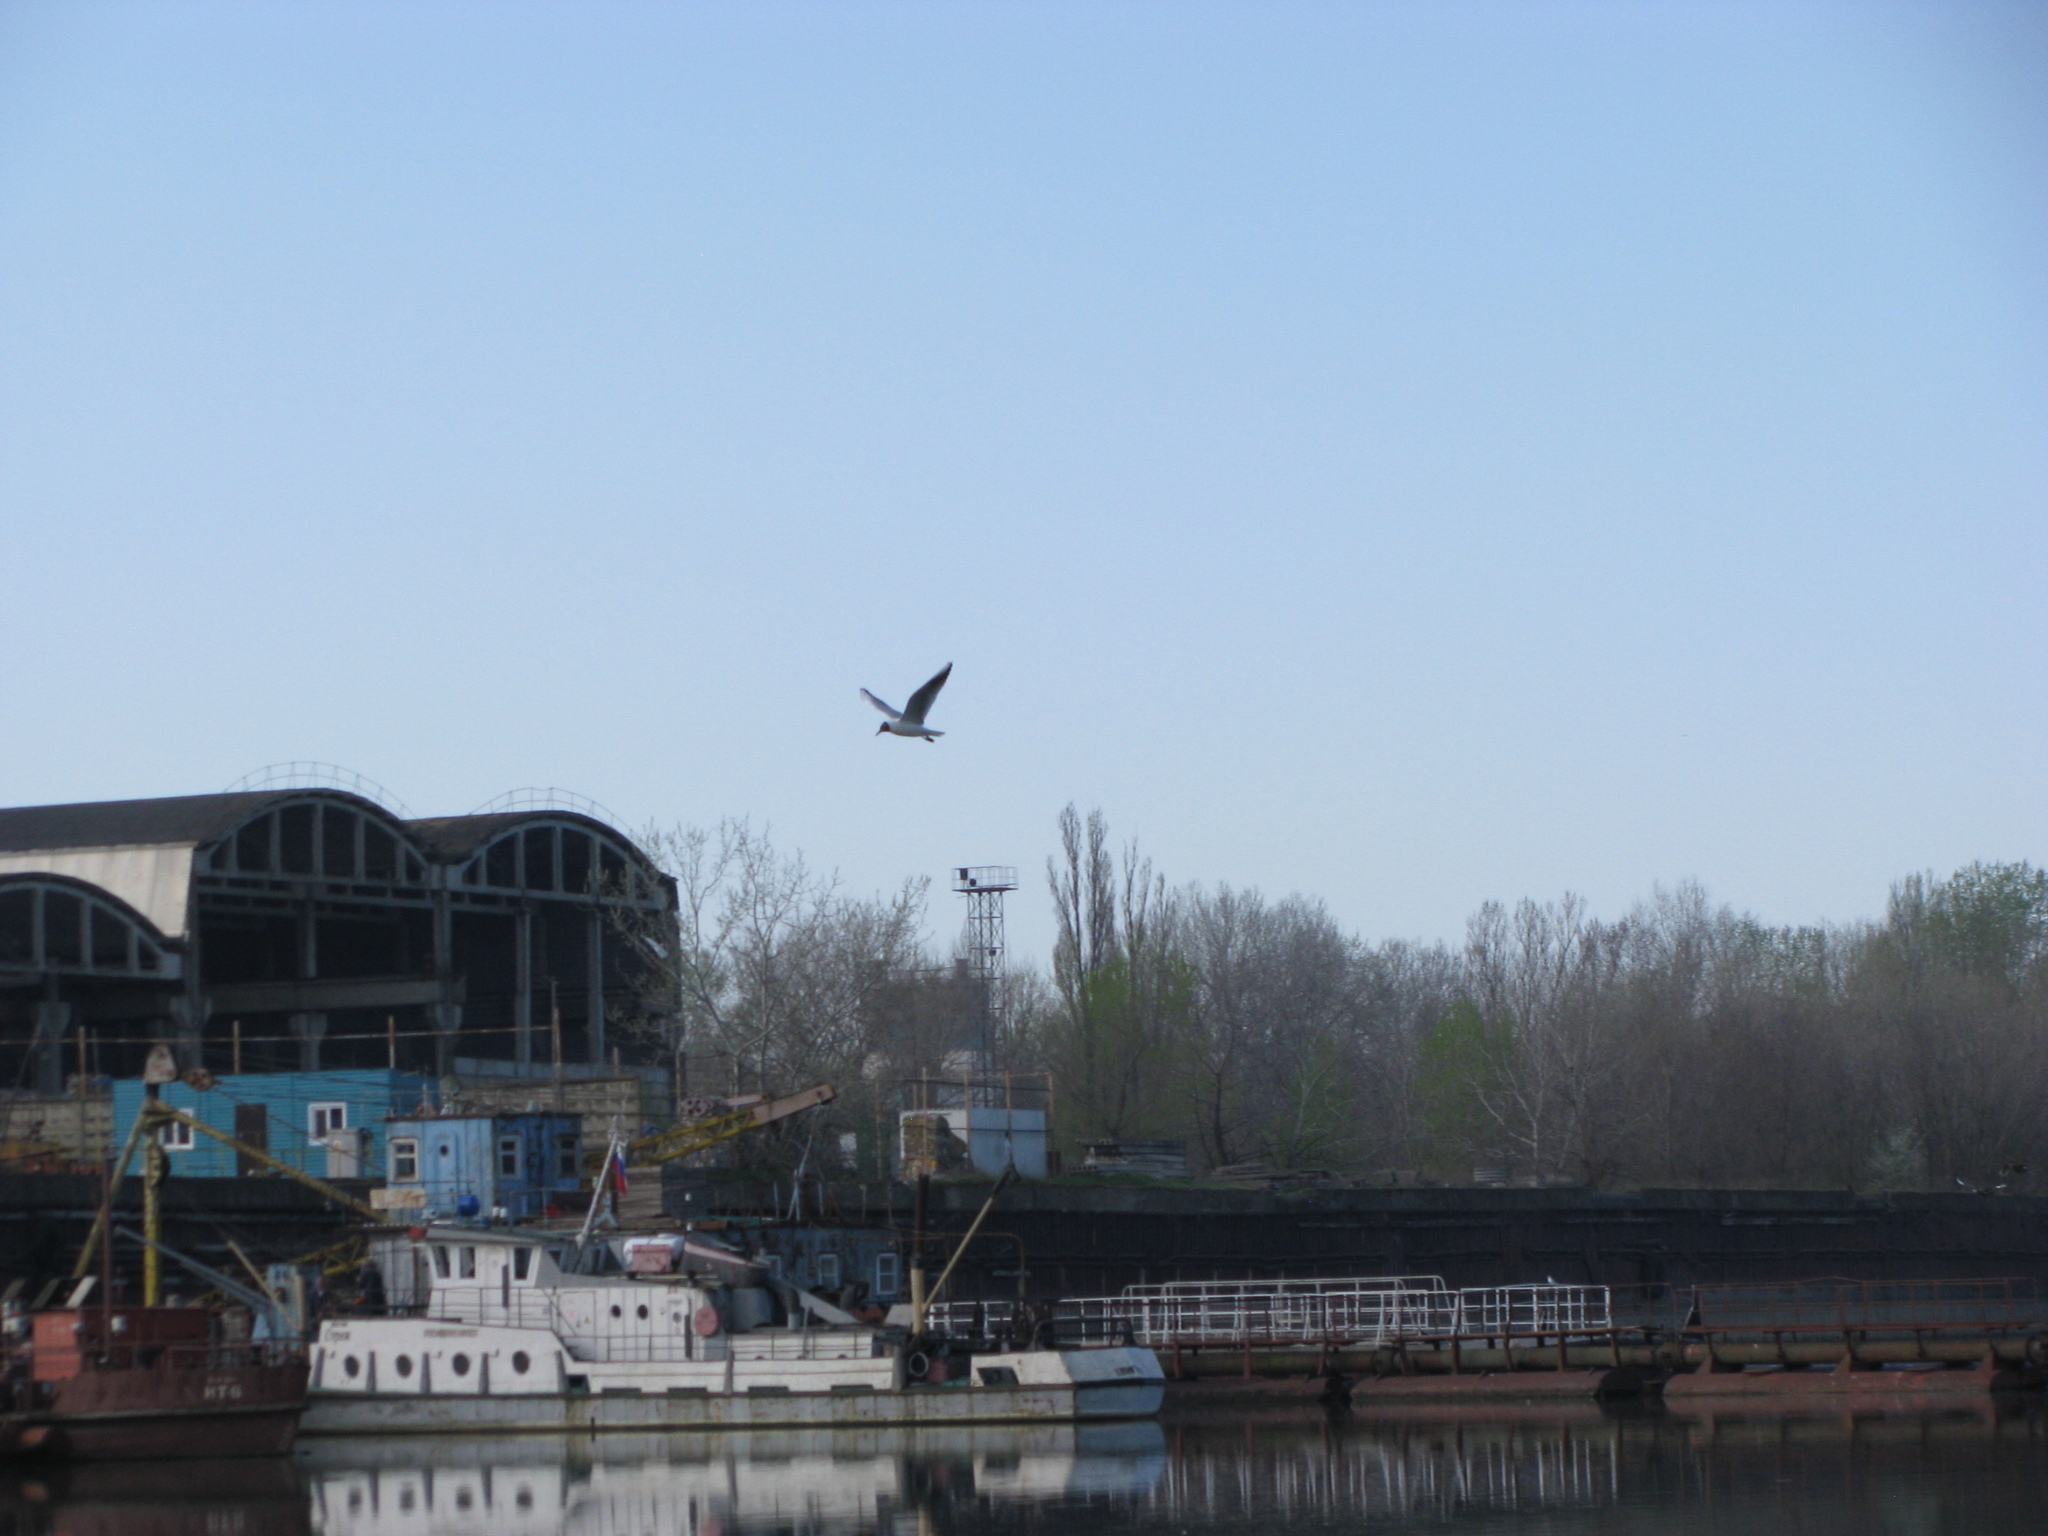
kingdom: Animalia
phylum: Chordata
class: Aves
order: Charadriiformes
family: Laridae
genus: Chroicocephalus
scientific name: Chroicocephalus ridibundus
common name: Black-headed gull
